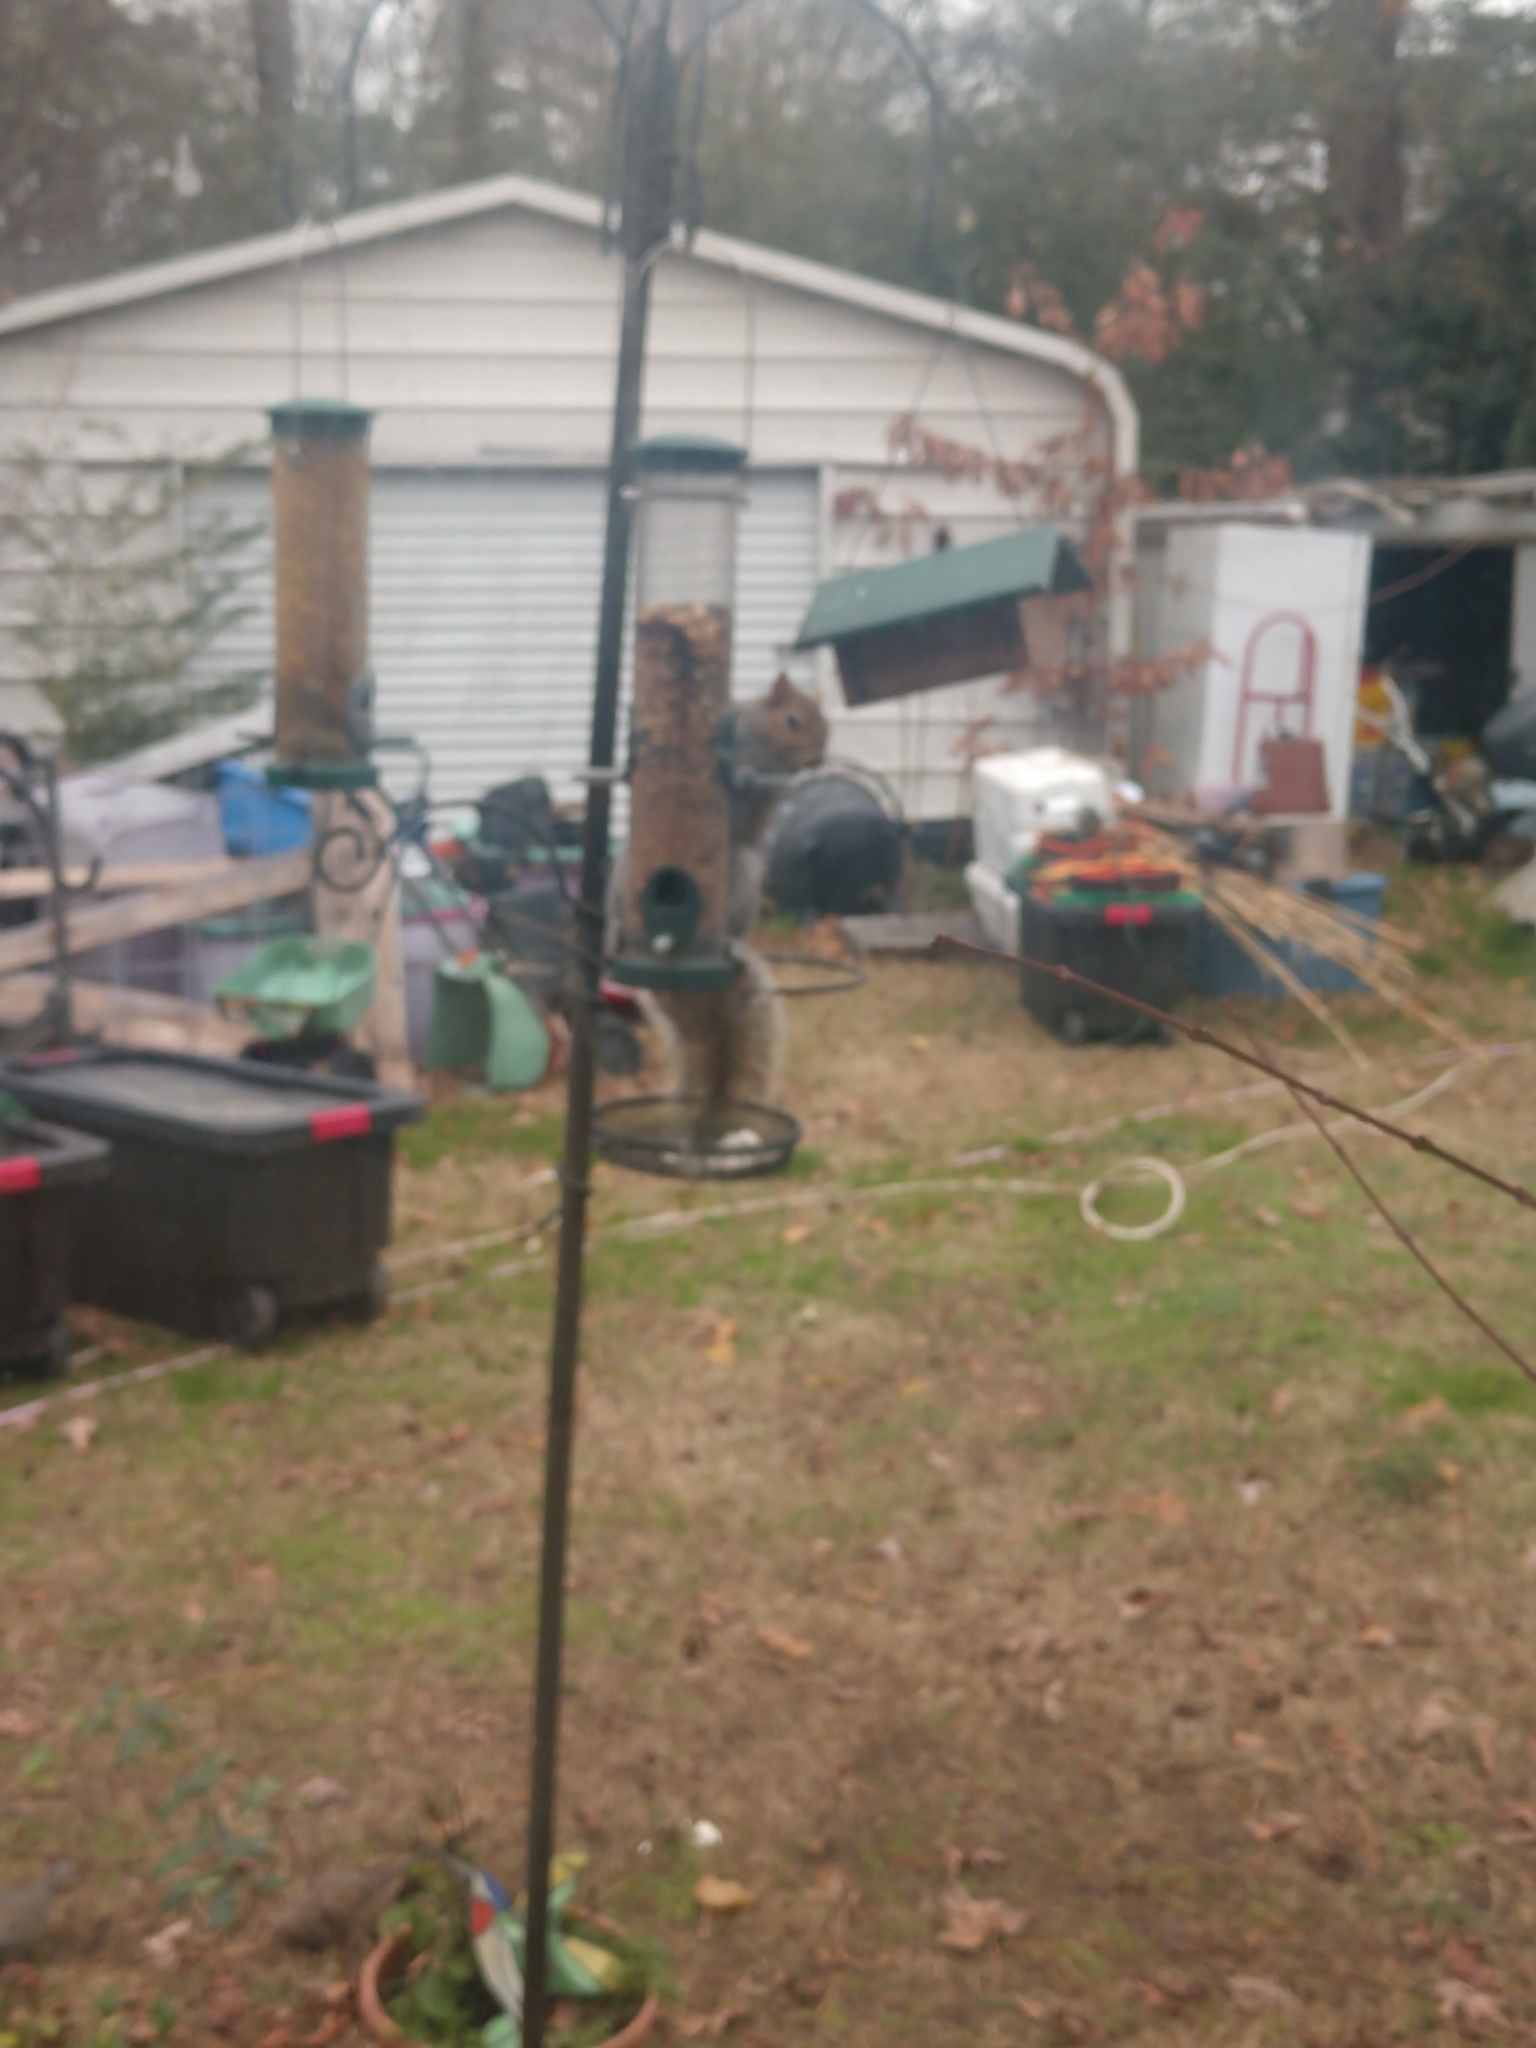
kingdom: Animalia
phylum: Chordata
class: Mammalia
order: Rodentia
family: Sciuridae
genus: Sciurus
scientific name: Sciurus carolinensis
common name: Eastern gray squirrel
